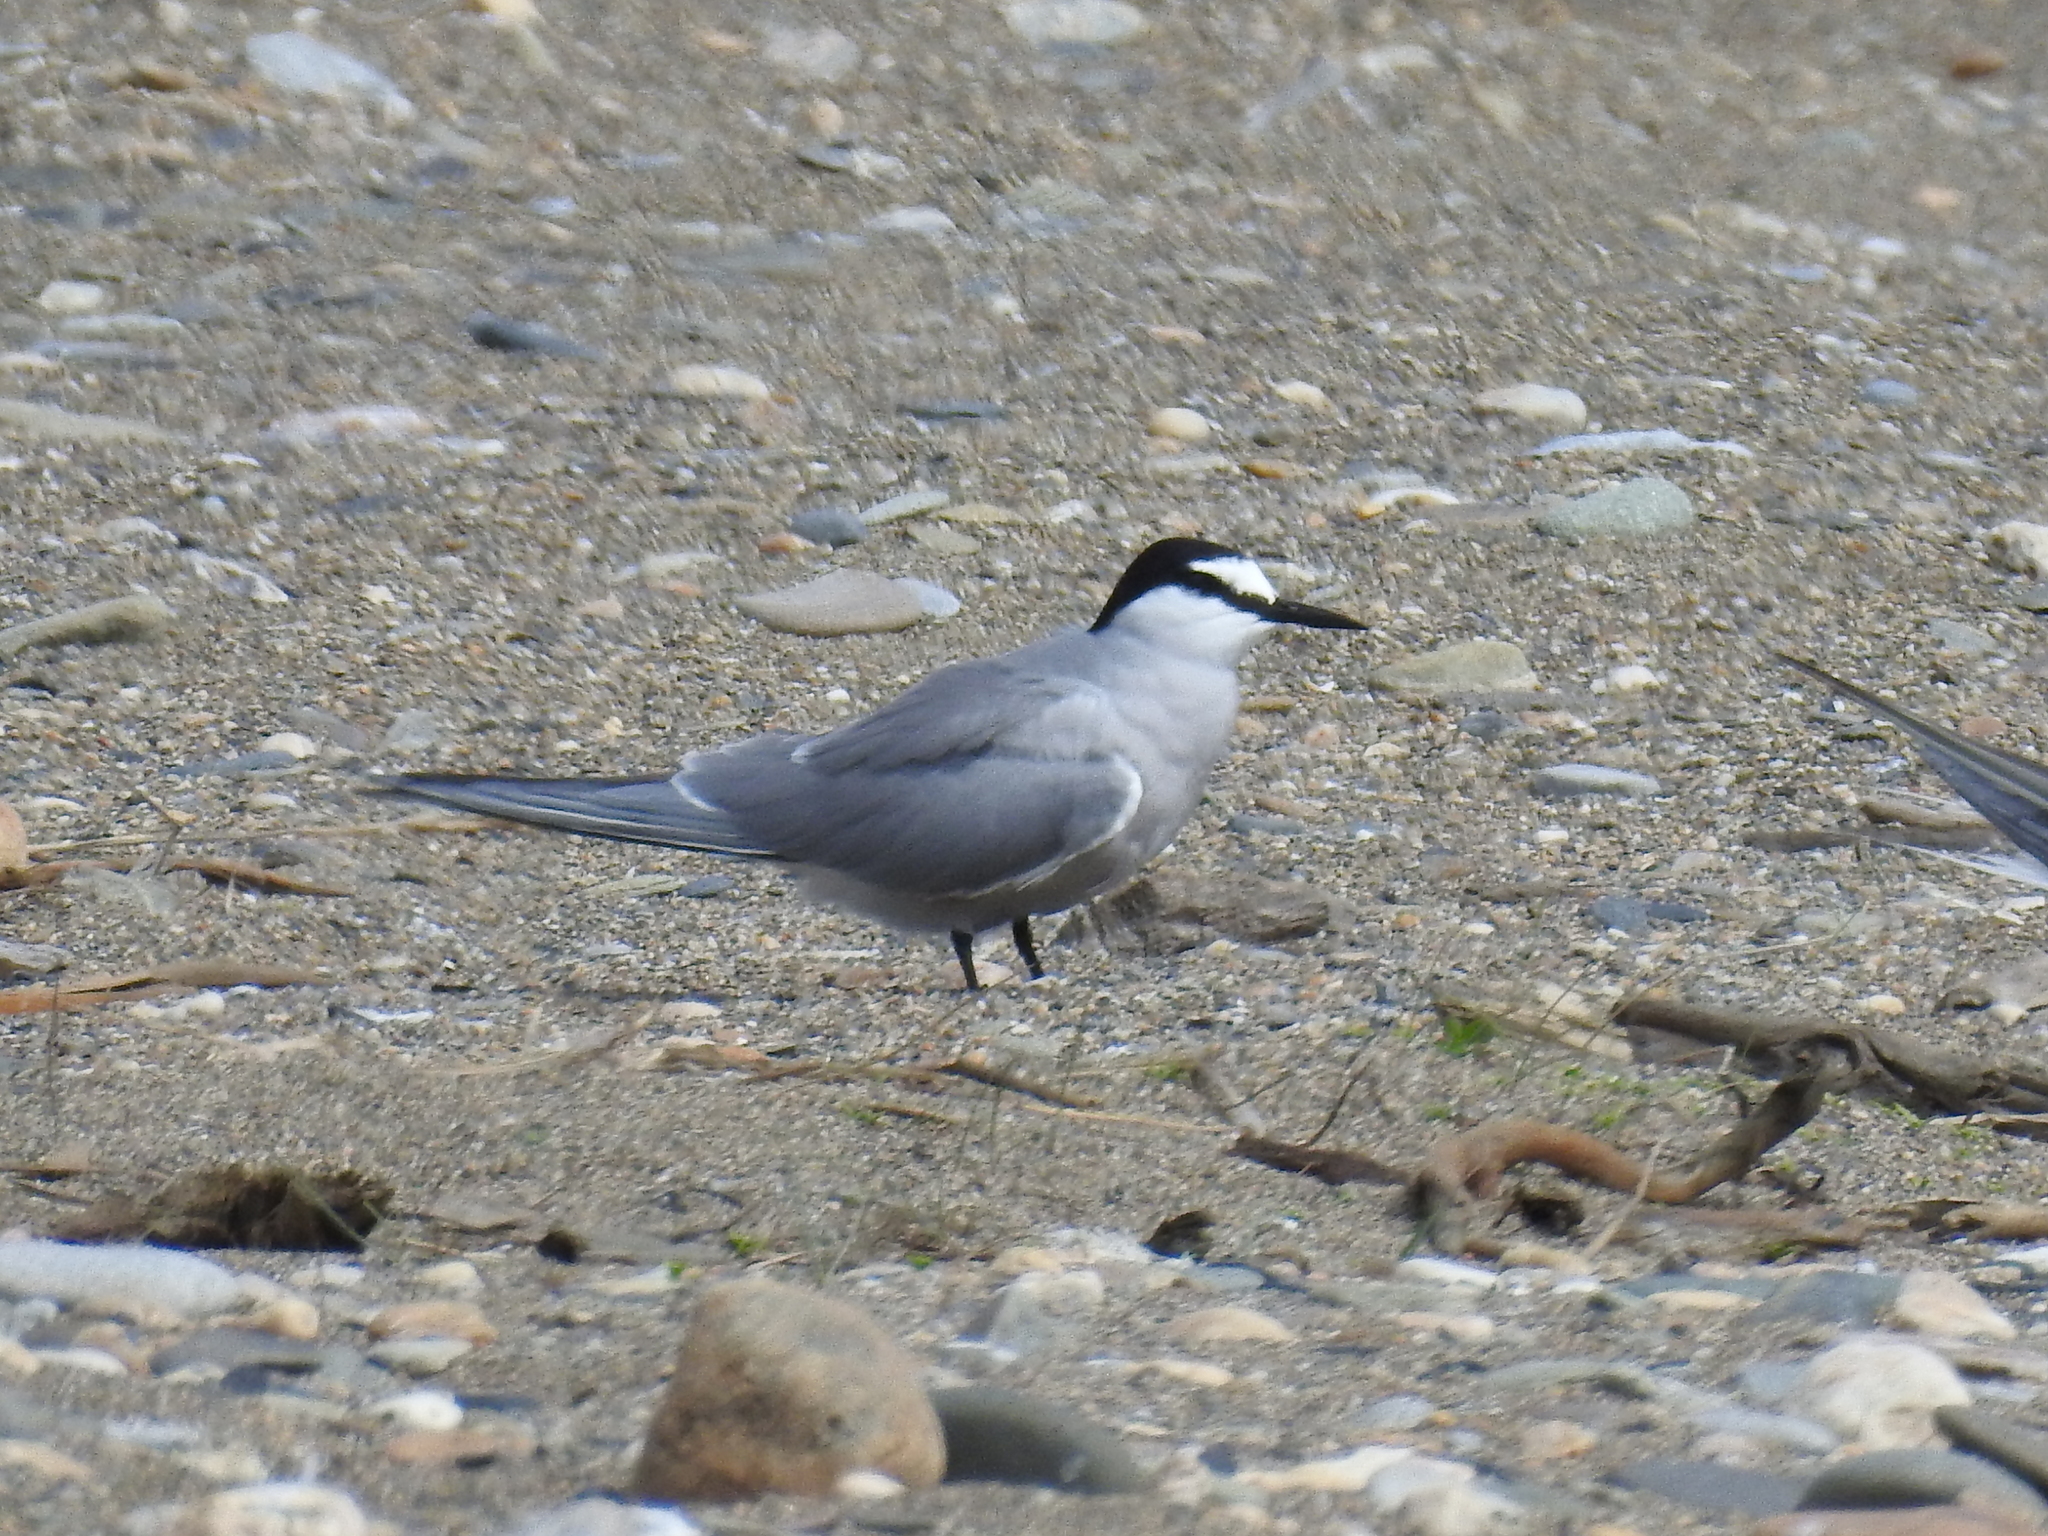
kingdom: Animalia
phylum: Chordata
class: Aves
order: Charadriiformes
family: Laridae
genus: Onychoprion
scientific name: Onychoprion aleuticus
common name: Aleutian tern
